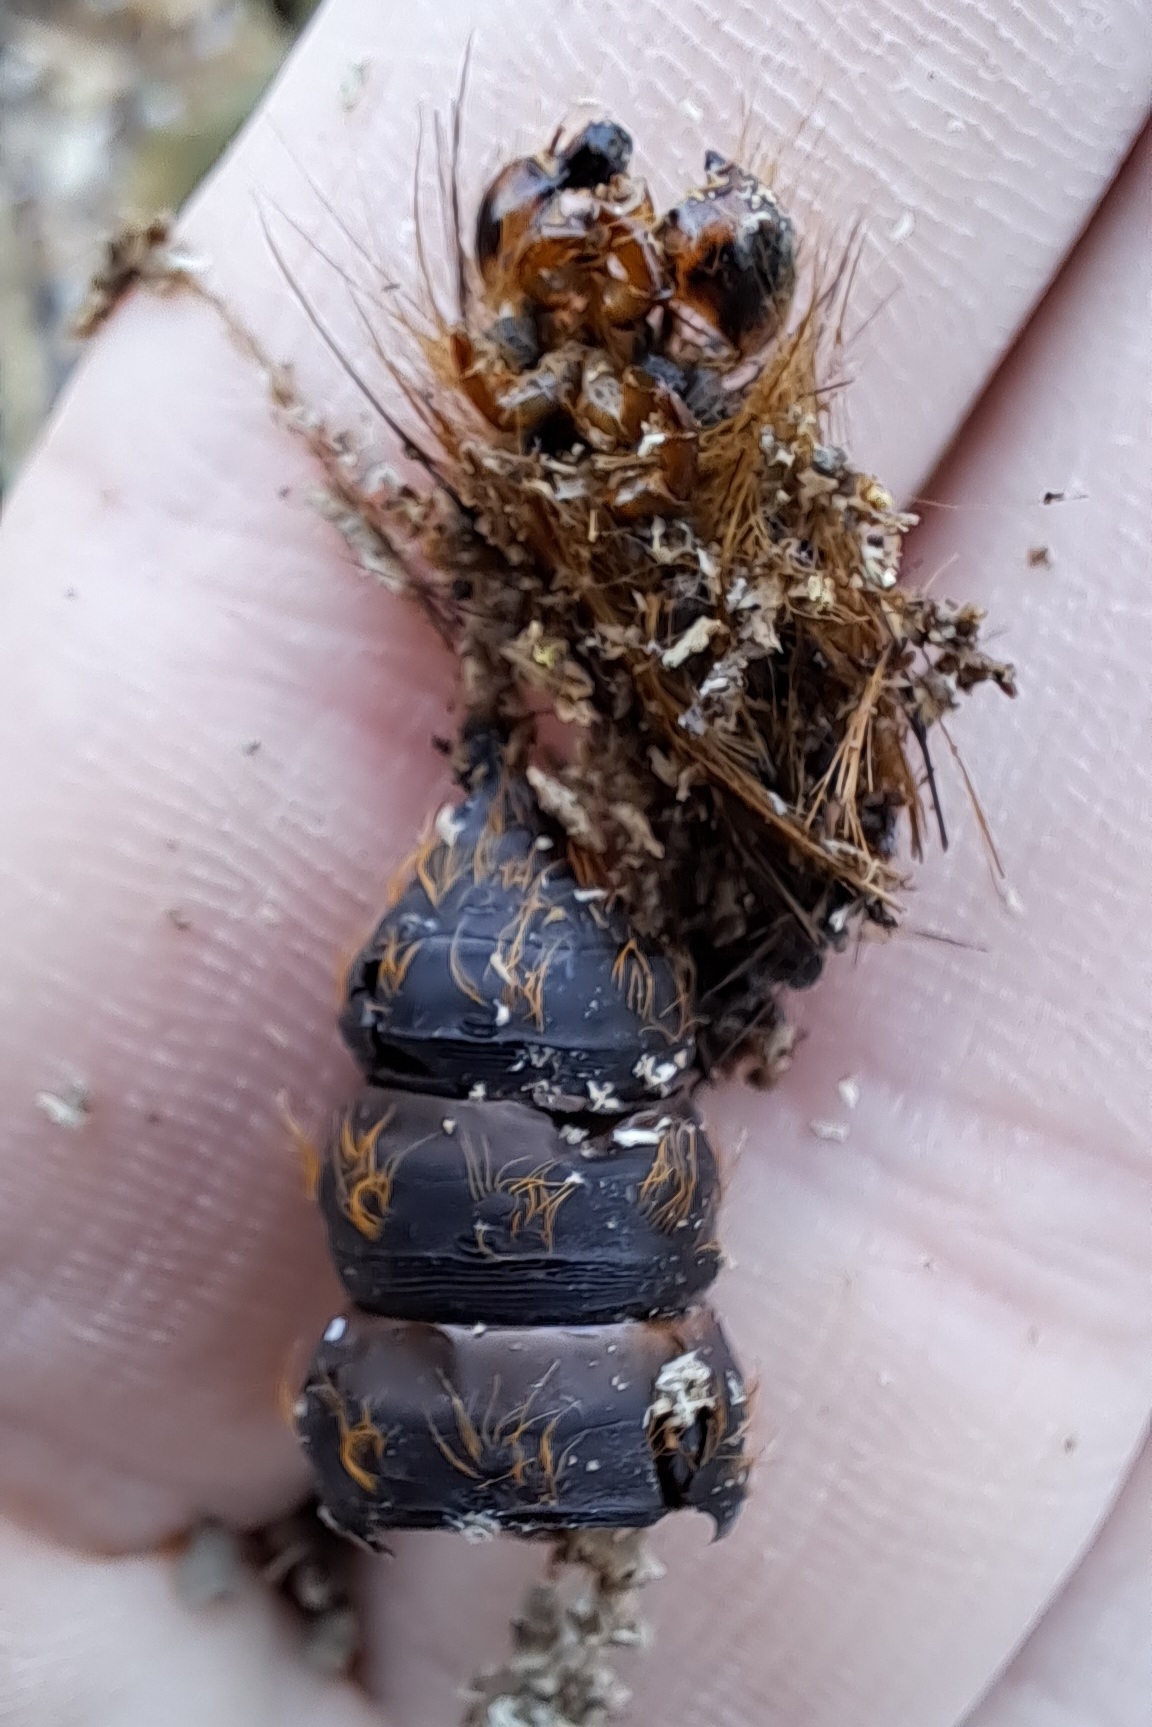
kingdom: Animalia
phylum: Arthropoda
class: Insecta
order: Lepidoptera
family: Erebidae
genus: Lymantria
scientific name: Lymantria dispar
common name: Gypsy moth
